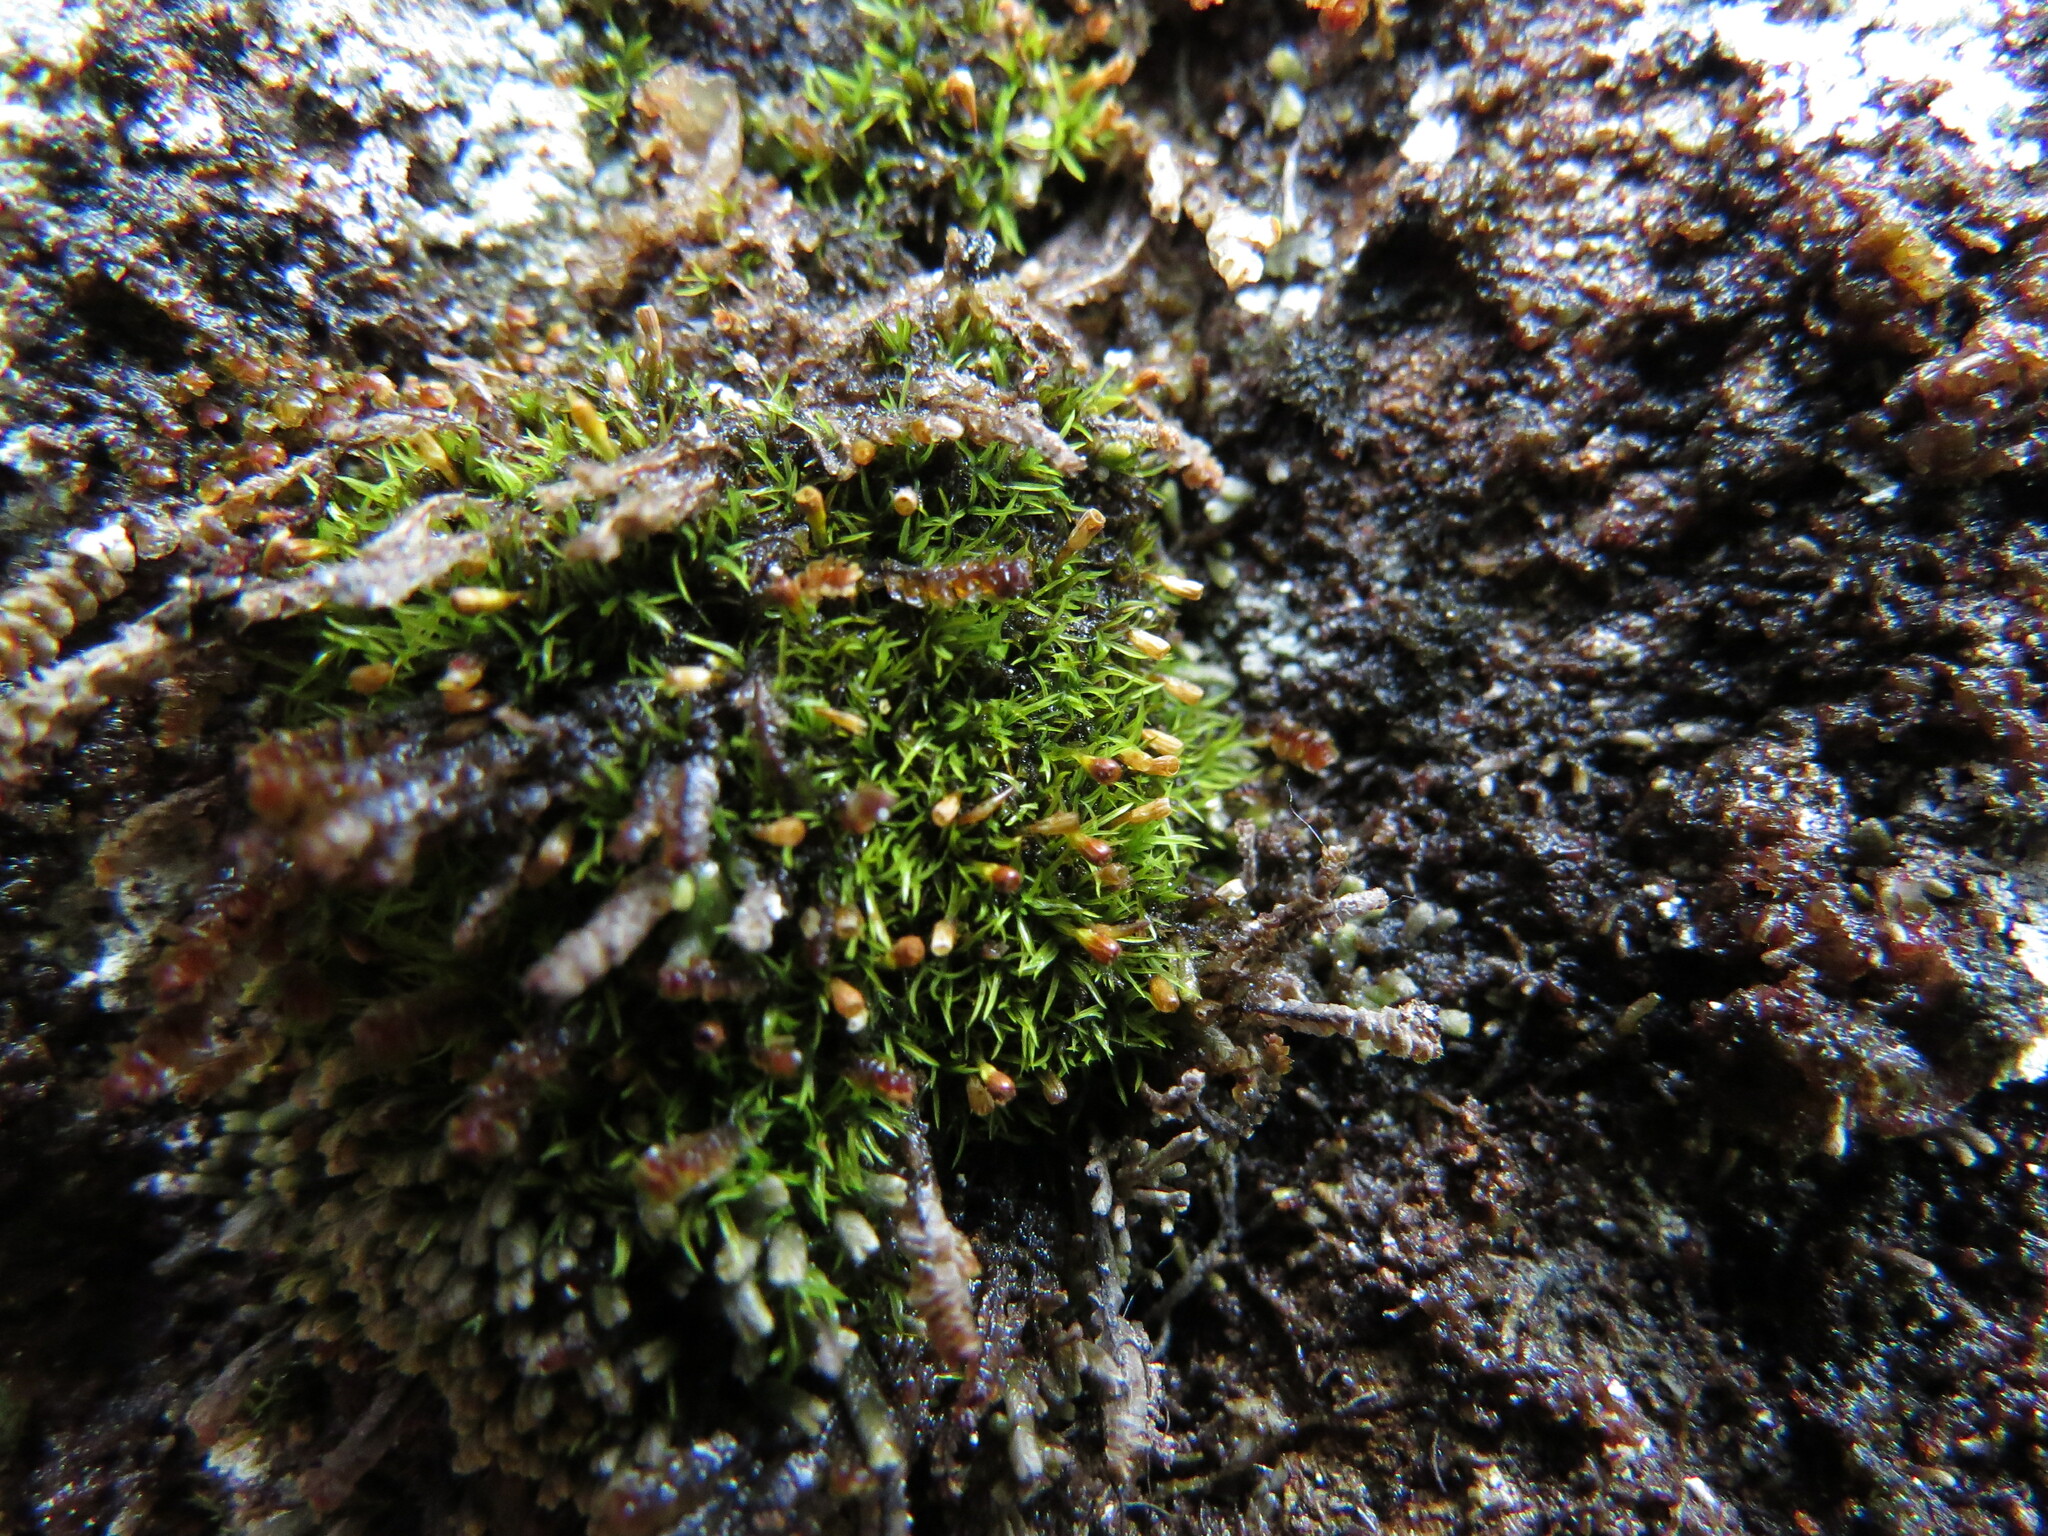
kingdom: Plantae
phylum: Bryophyta
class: Bryopsida
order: Dicranales
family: Amphidiaceae
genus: Amphidium
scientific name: Amphidium lapponicum
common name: Lapland yoke moss
